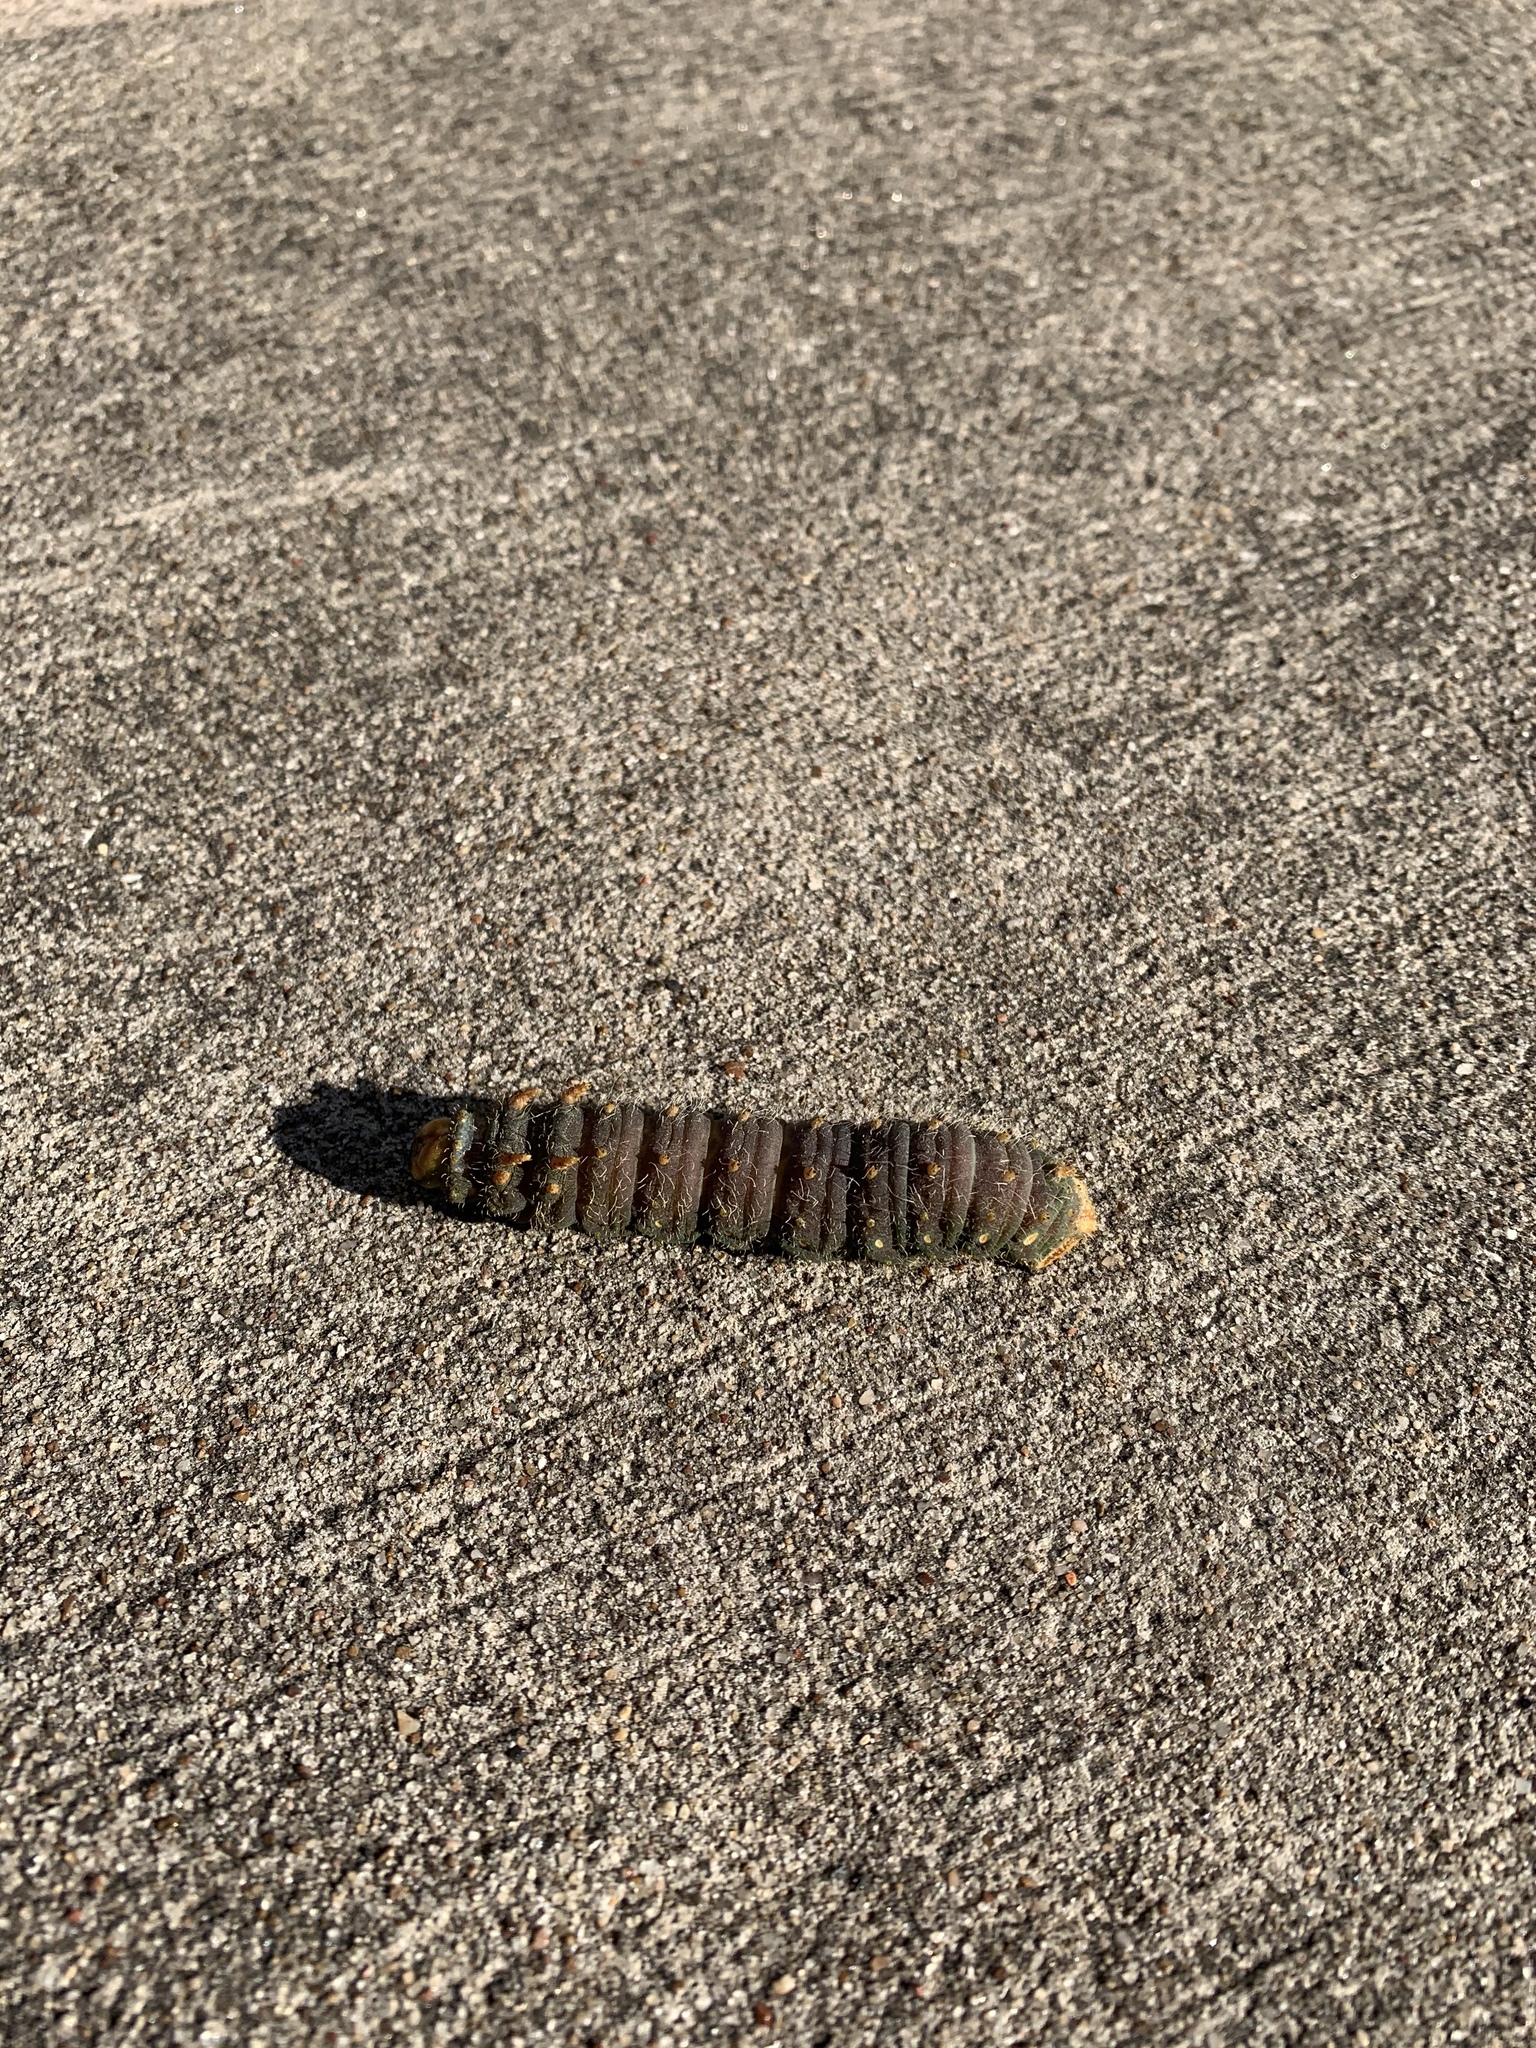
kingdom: Animalia
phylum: Arthropoda
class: Insecta
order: Lepidoptera
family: Saturniidae
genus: Eacles
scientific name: Eacles imperialis
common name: Imperial moth
